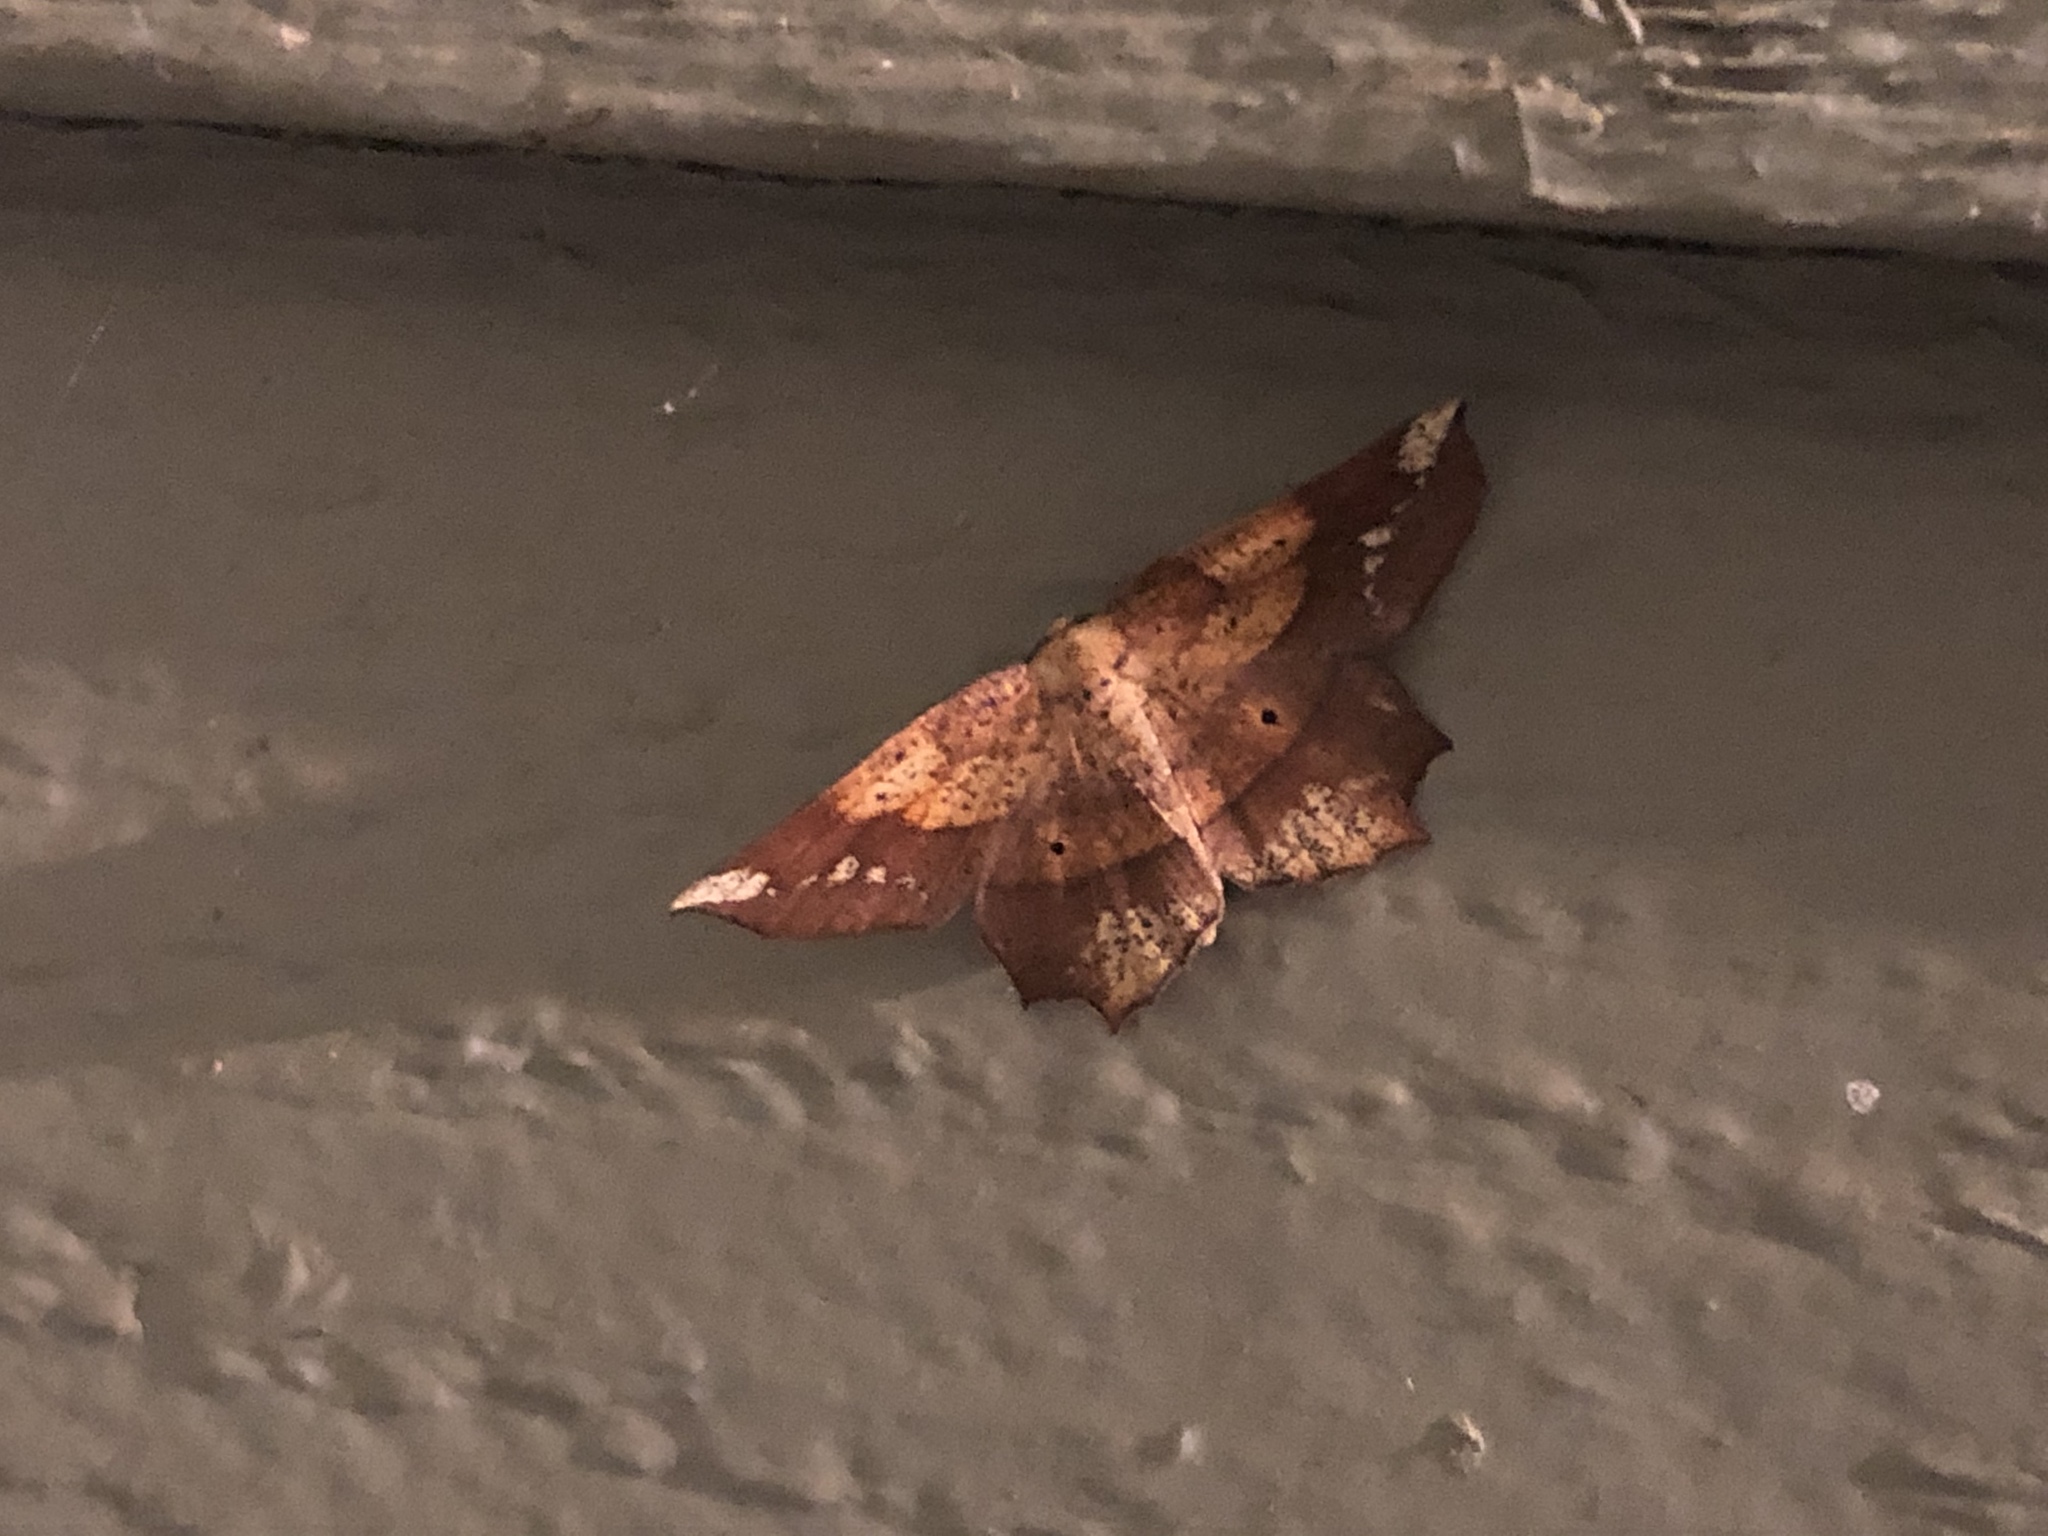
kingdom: Animalia
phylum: Arthropoda
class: Insecta
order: Lepidoptera
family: Geometridae
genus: Euchlaena
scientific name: Euchlaena amoenaria
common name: Deep yellow euchlaena
